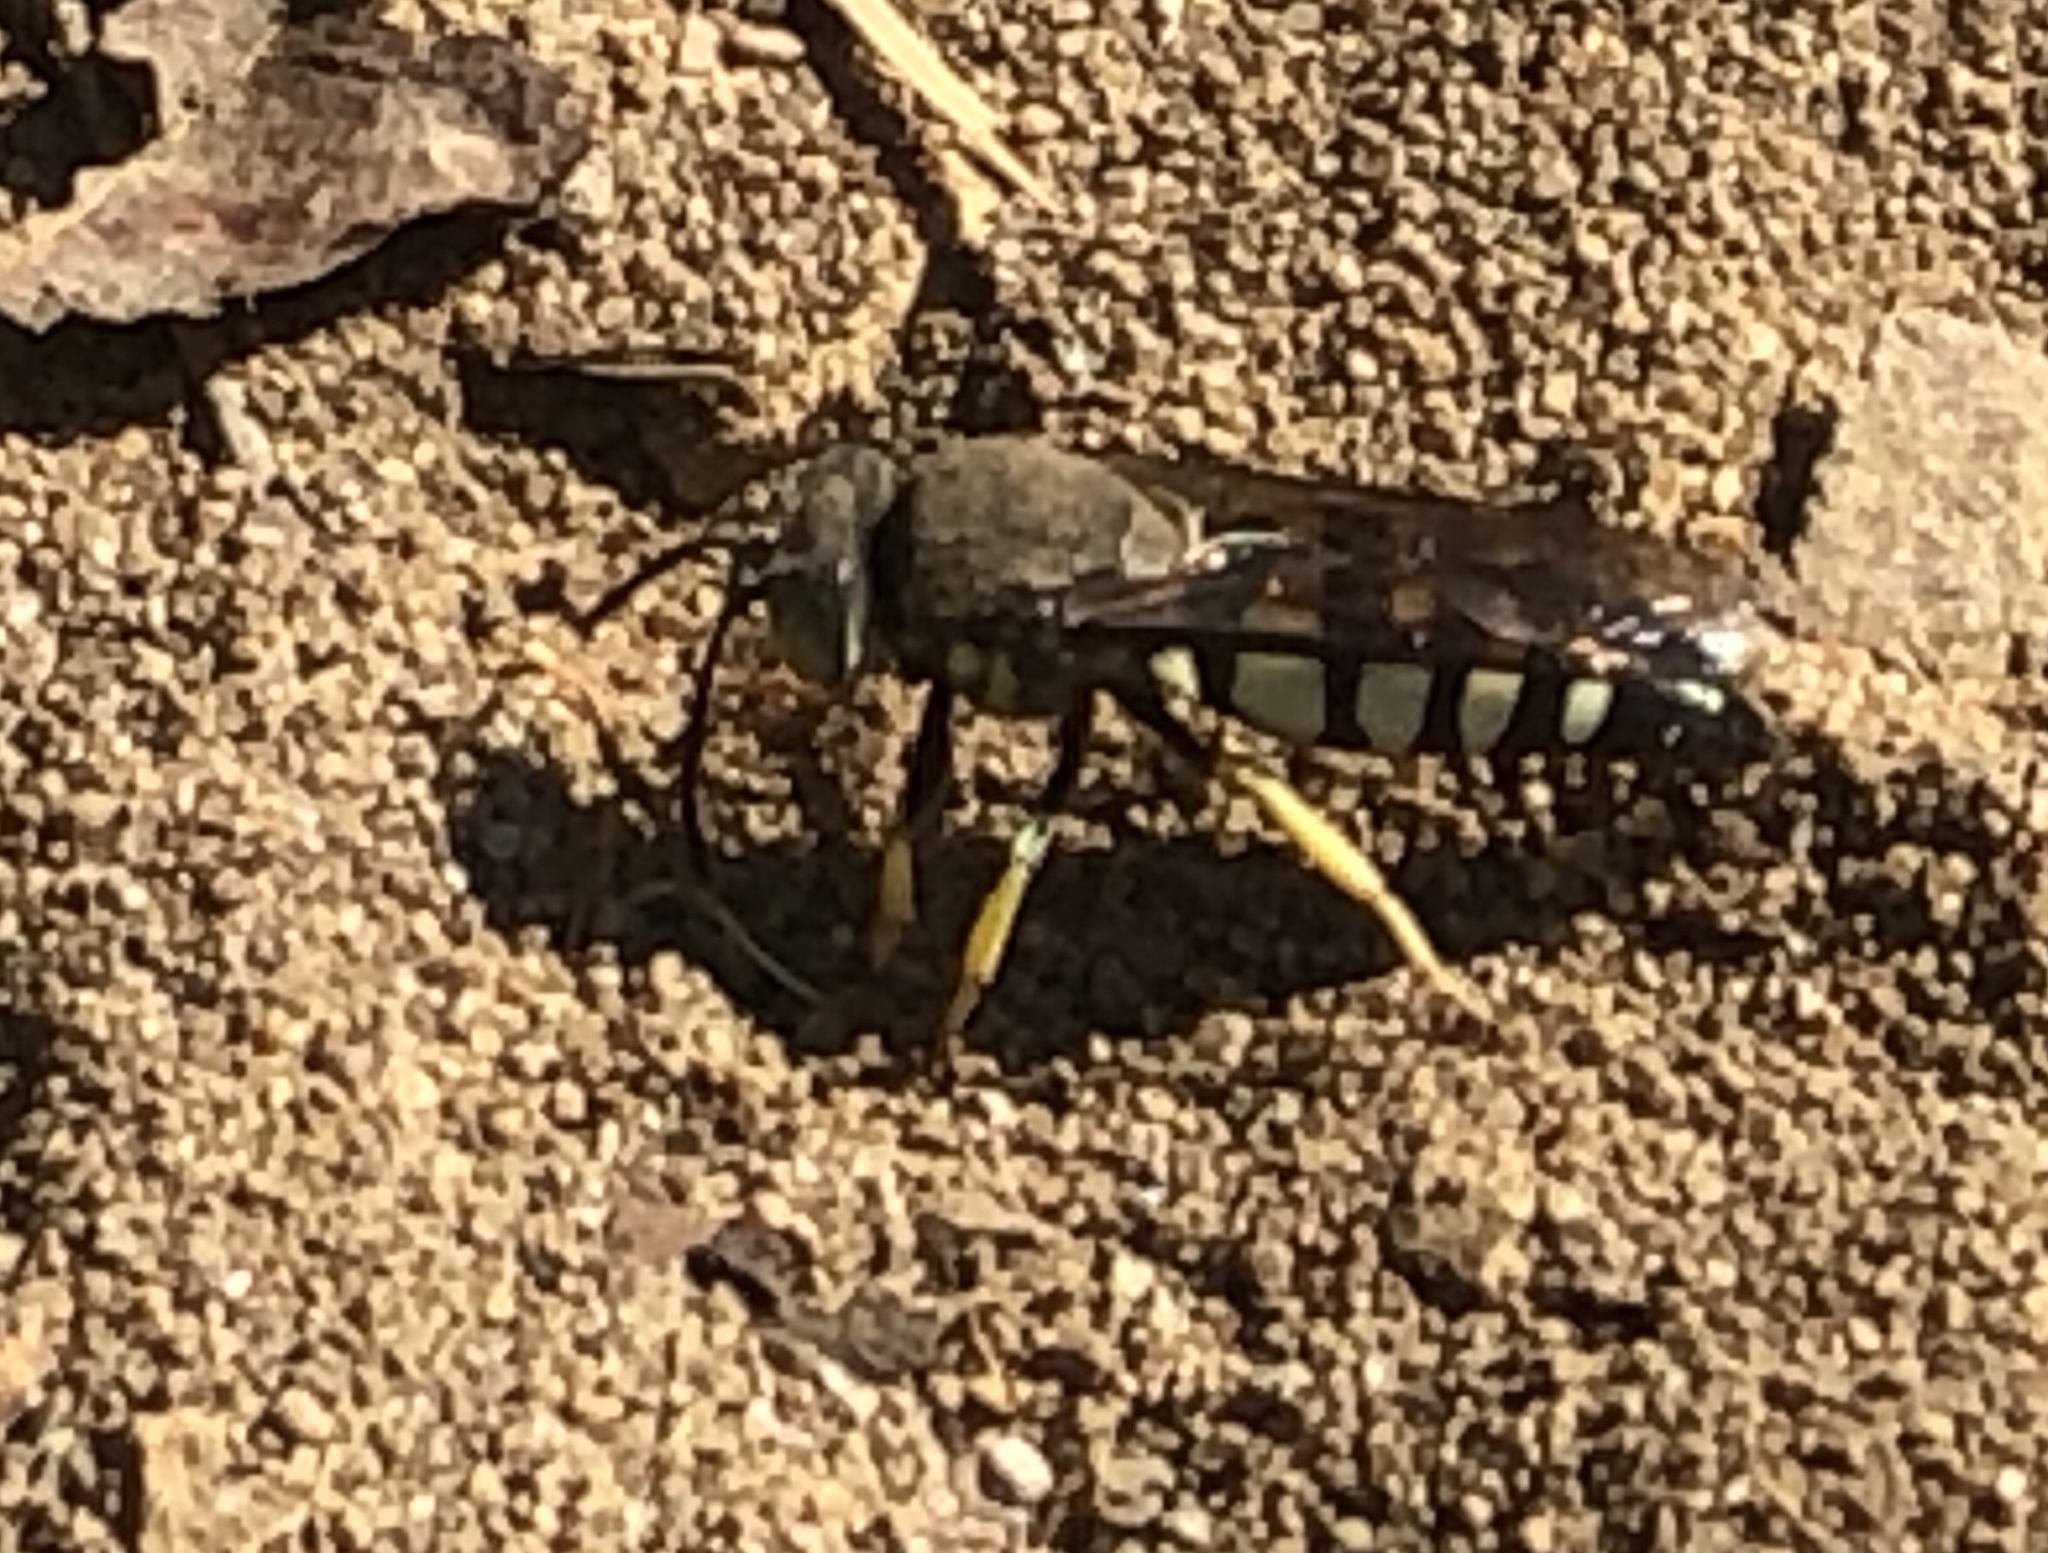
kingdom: Animalia
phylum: Arthropoda
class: Insecta
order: Hymenoptera
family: Crabronidae
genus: Bicyrtes
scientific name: Bicyrtes quadrifasciatus
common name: Four-banded stink bug hunter wasp
